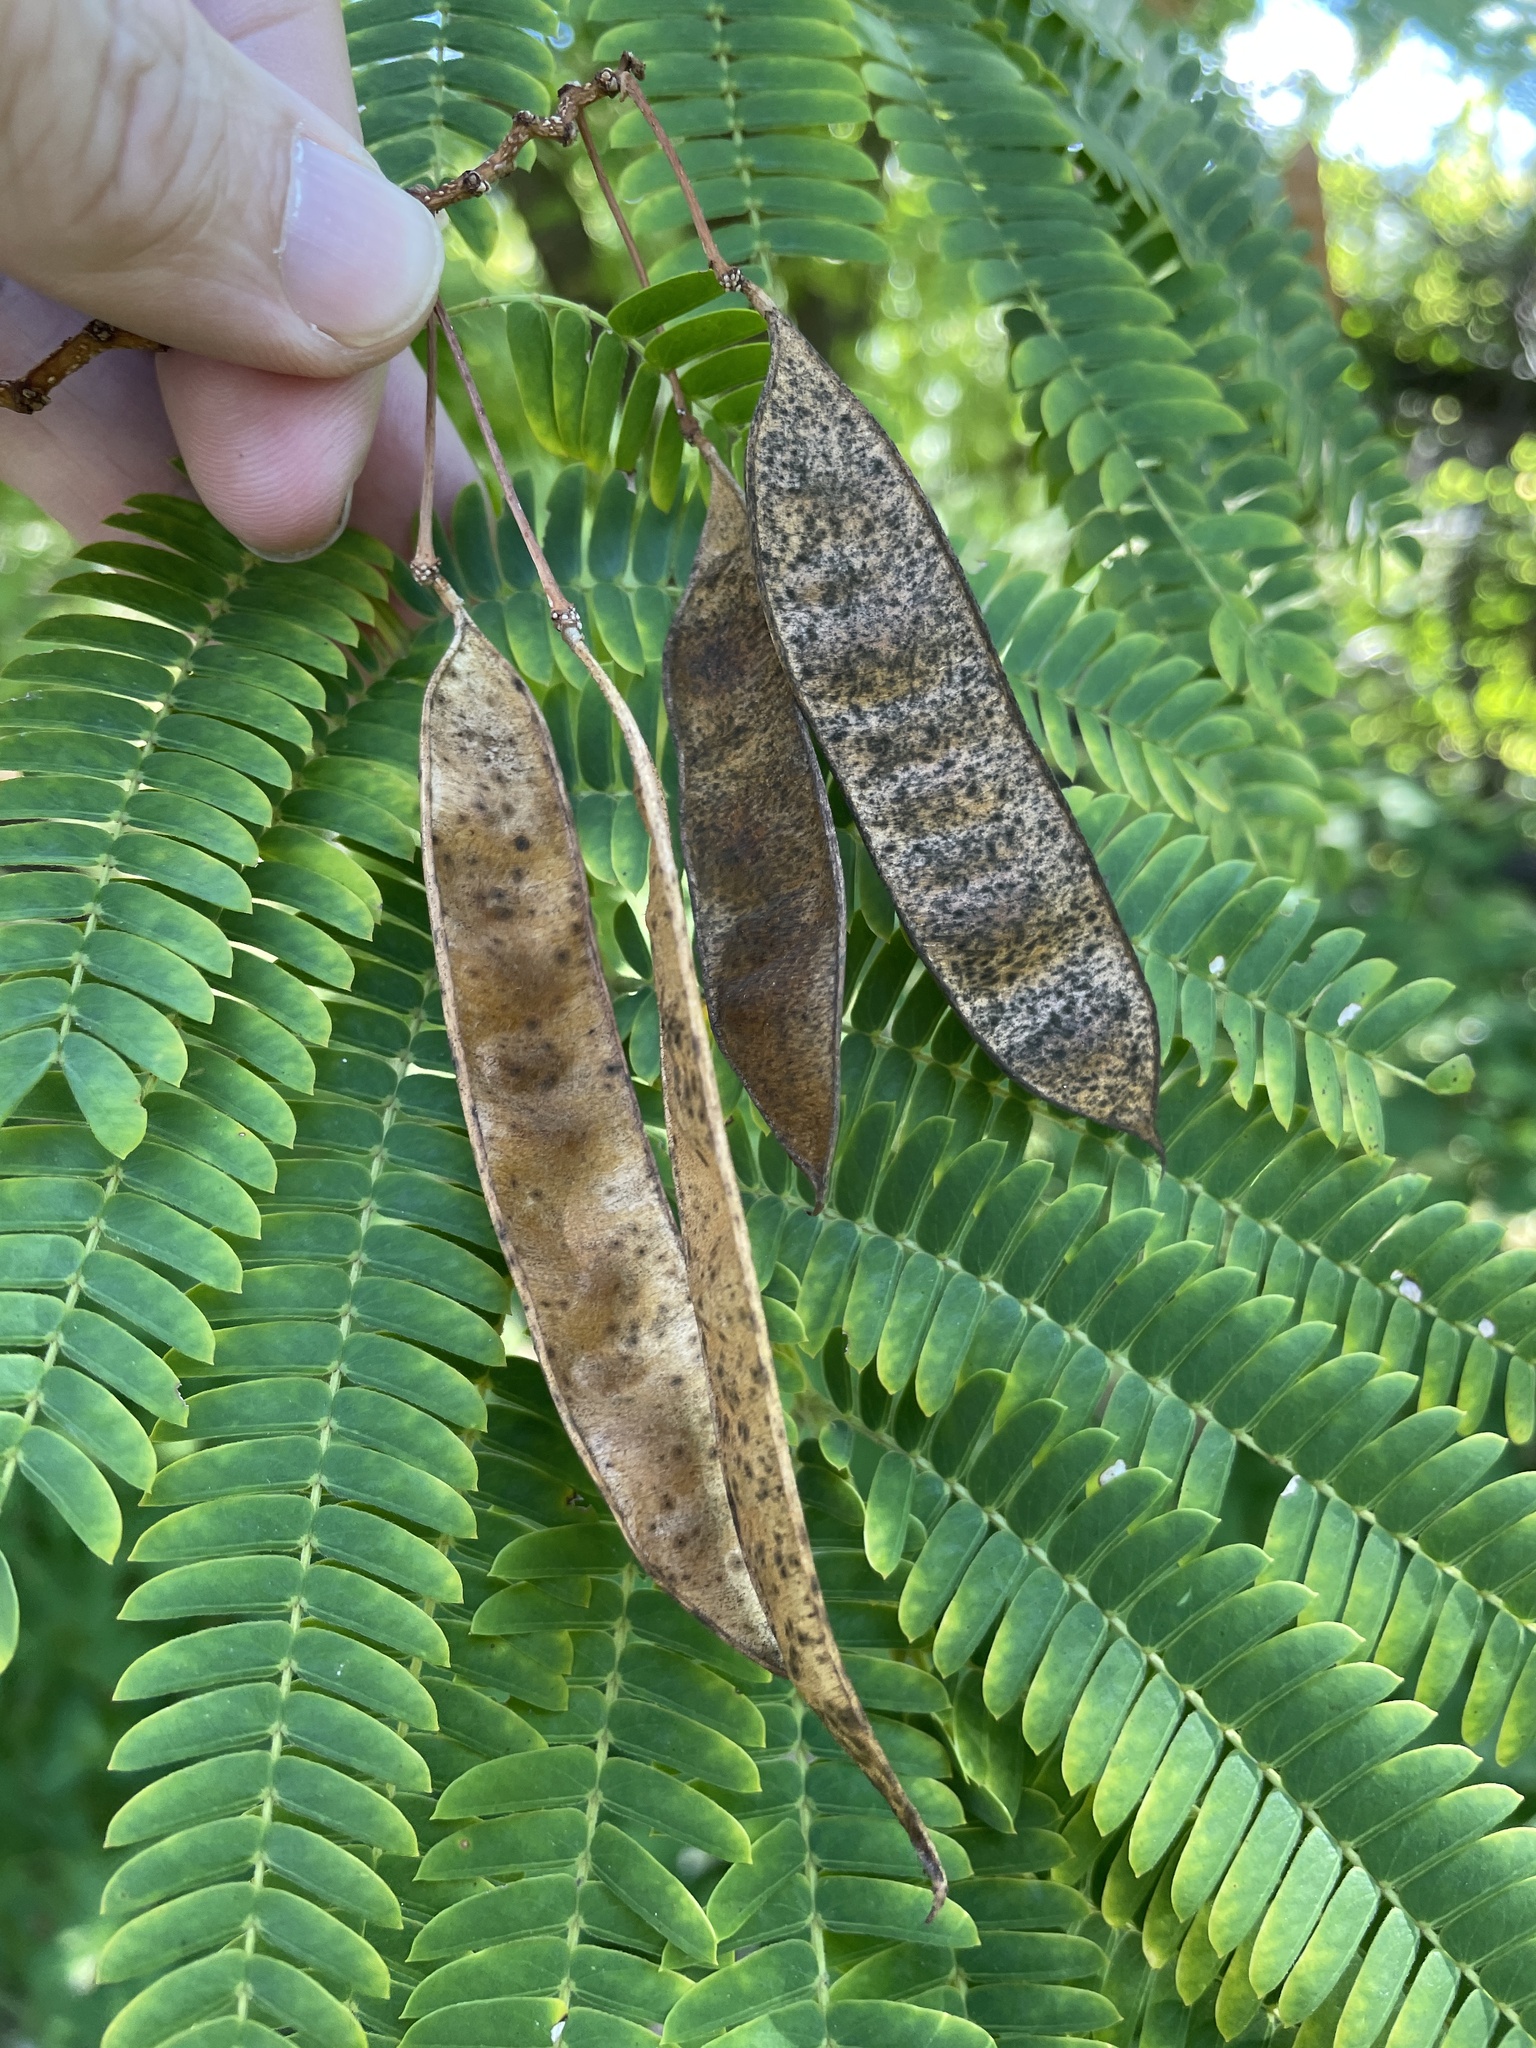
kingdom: Plantae
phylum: Tracheophyta
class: Magnoliopsida
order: Fabales
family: Fabaceae
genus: Albizia
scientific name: Albizia julibrissin
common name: Silktree
